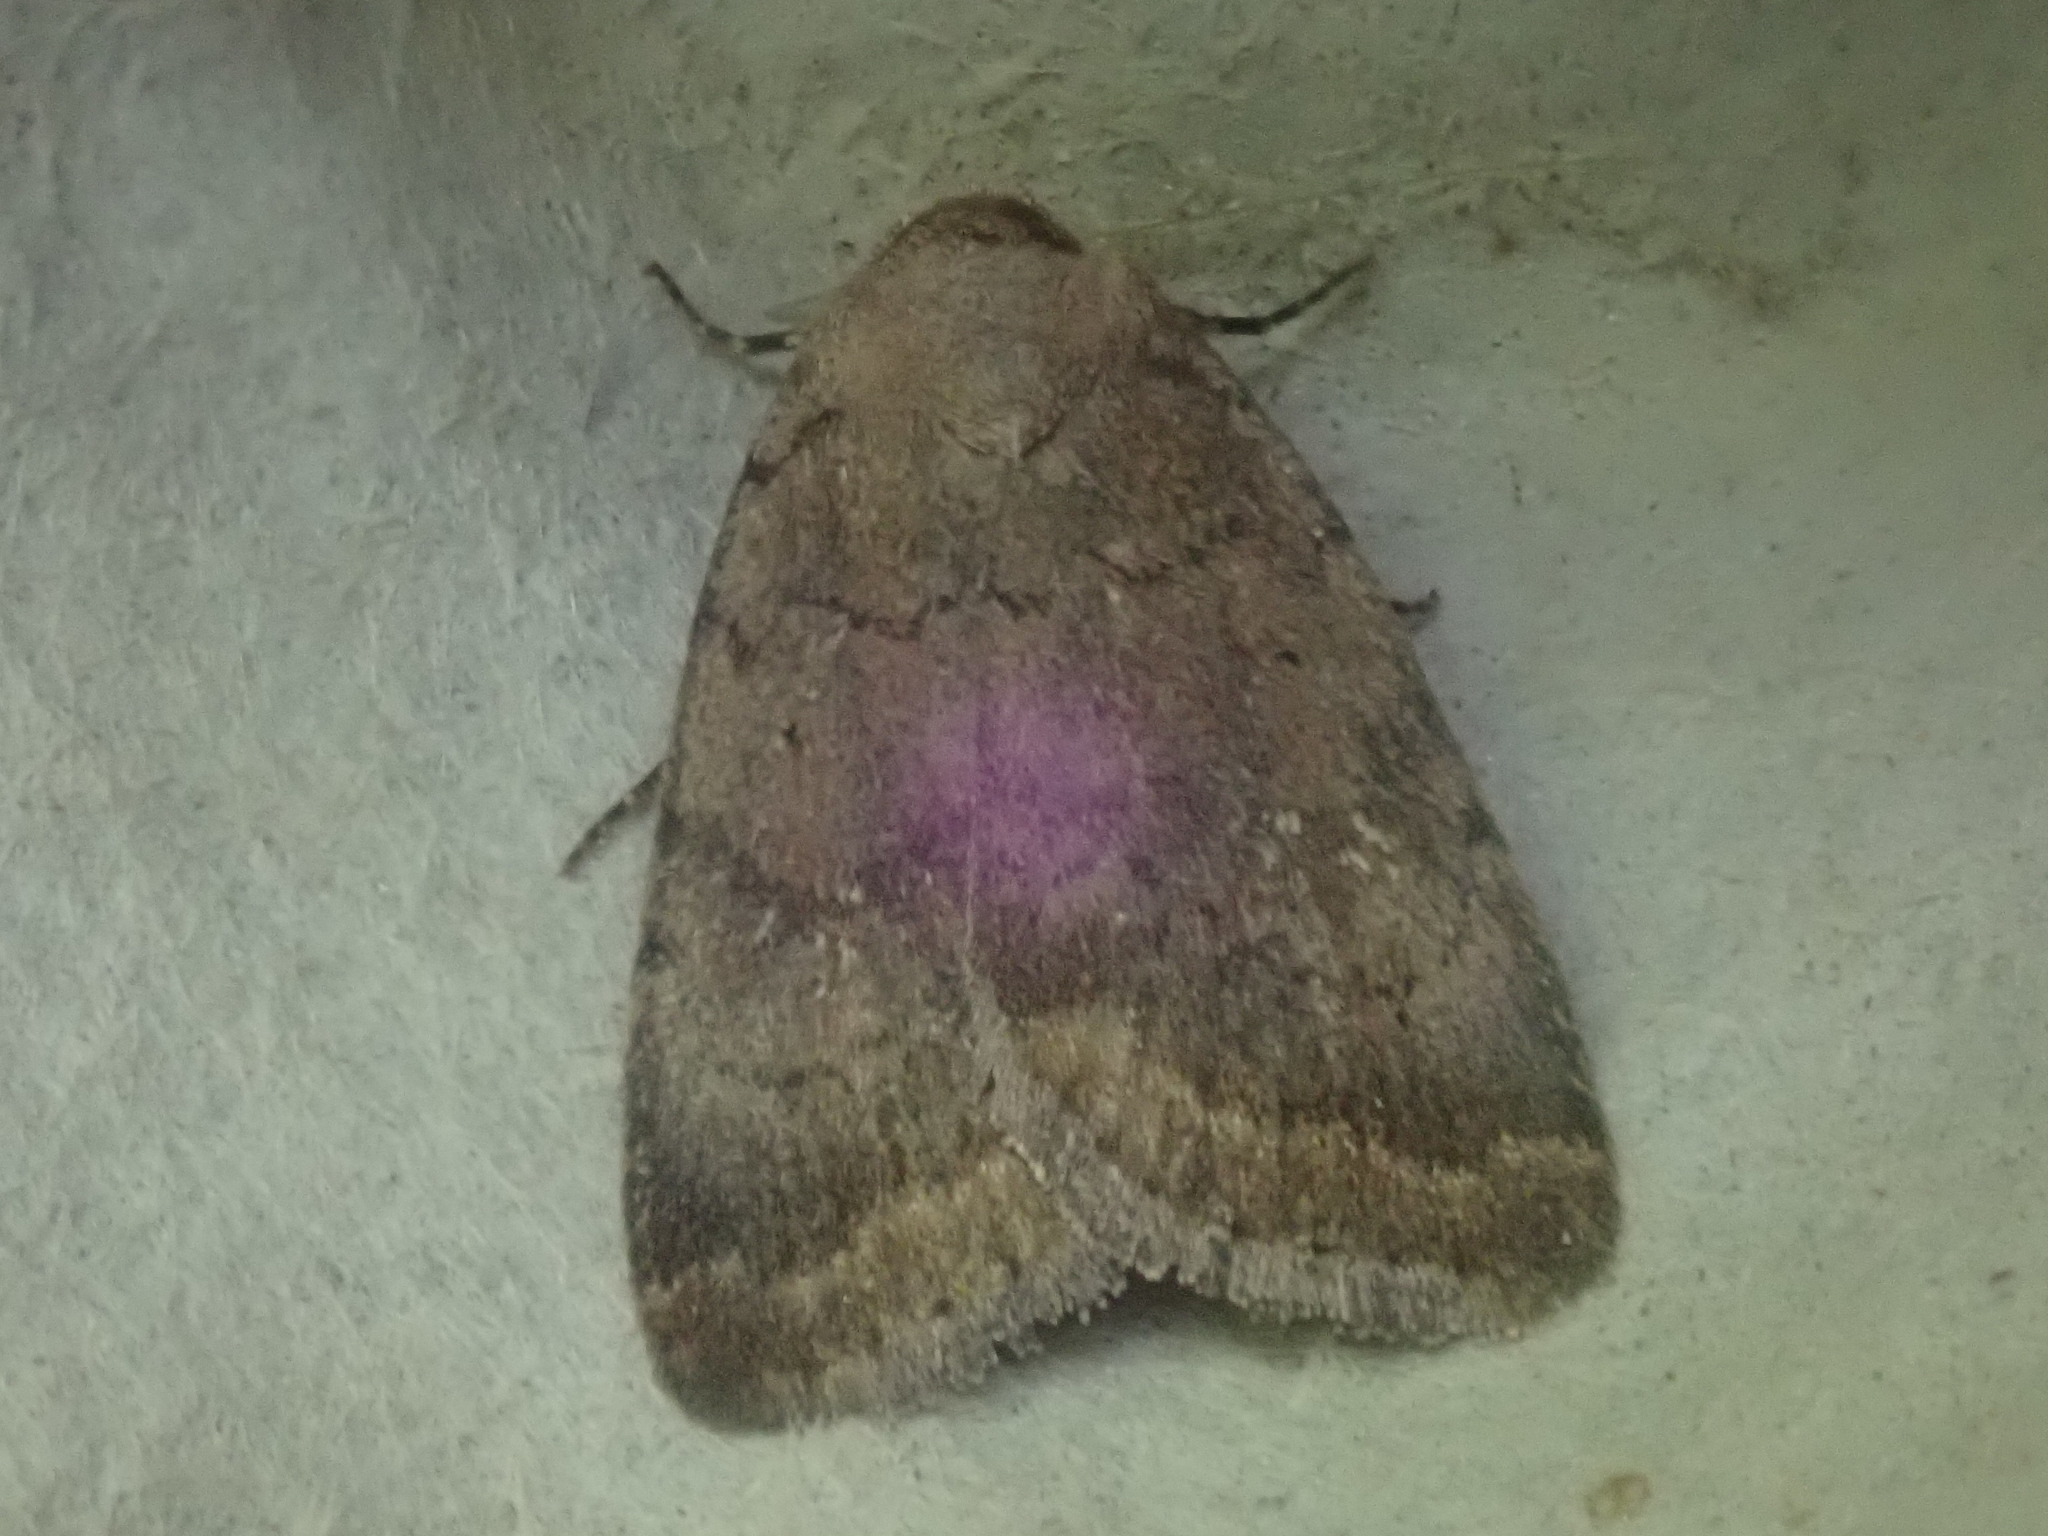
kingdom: Animalia
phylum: Arthropoda
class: Insecta
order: Lepidoptera
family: Noctuidae
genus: Athetis
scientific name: Athetis tarda
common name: Slowpoke moth
